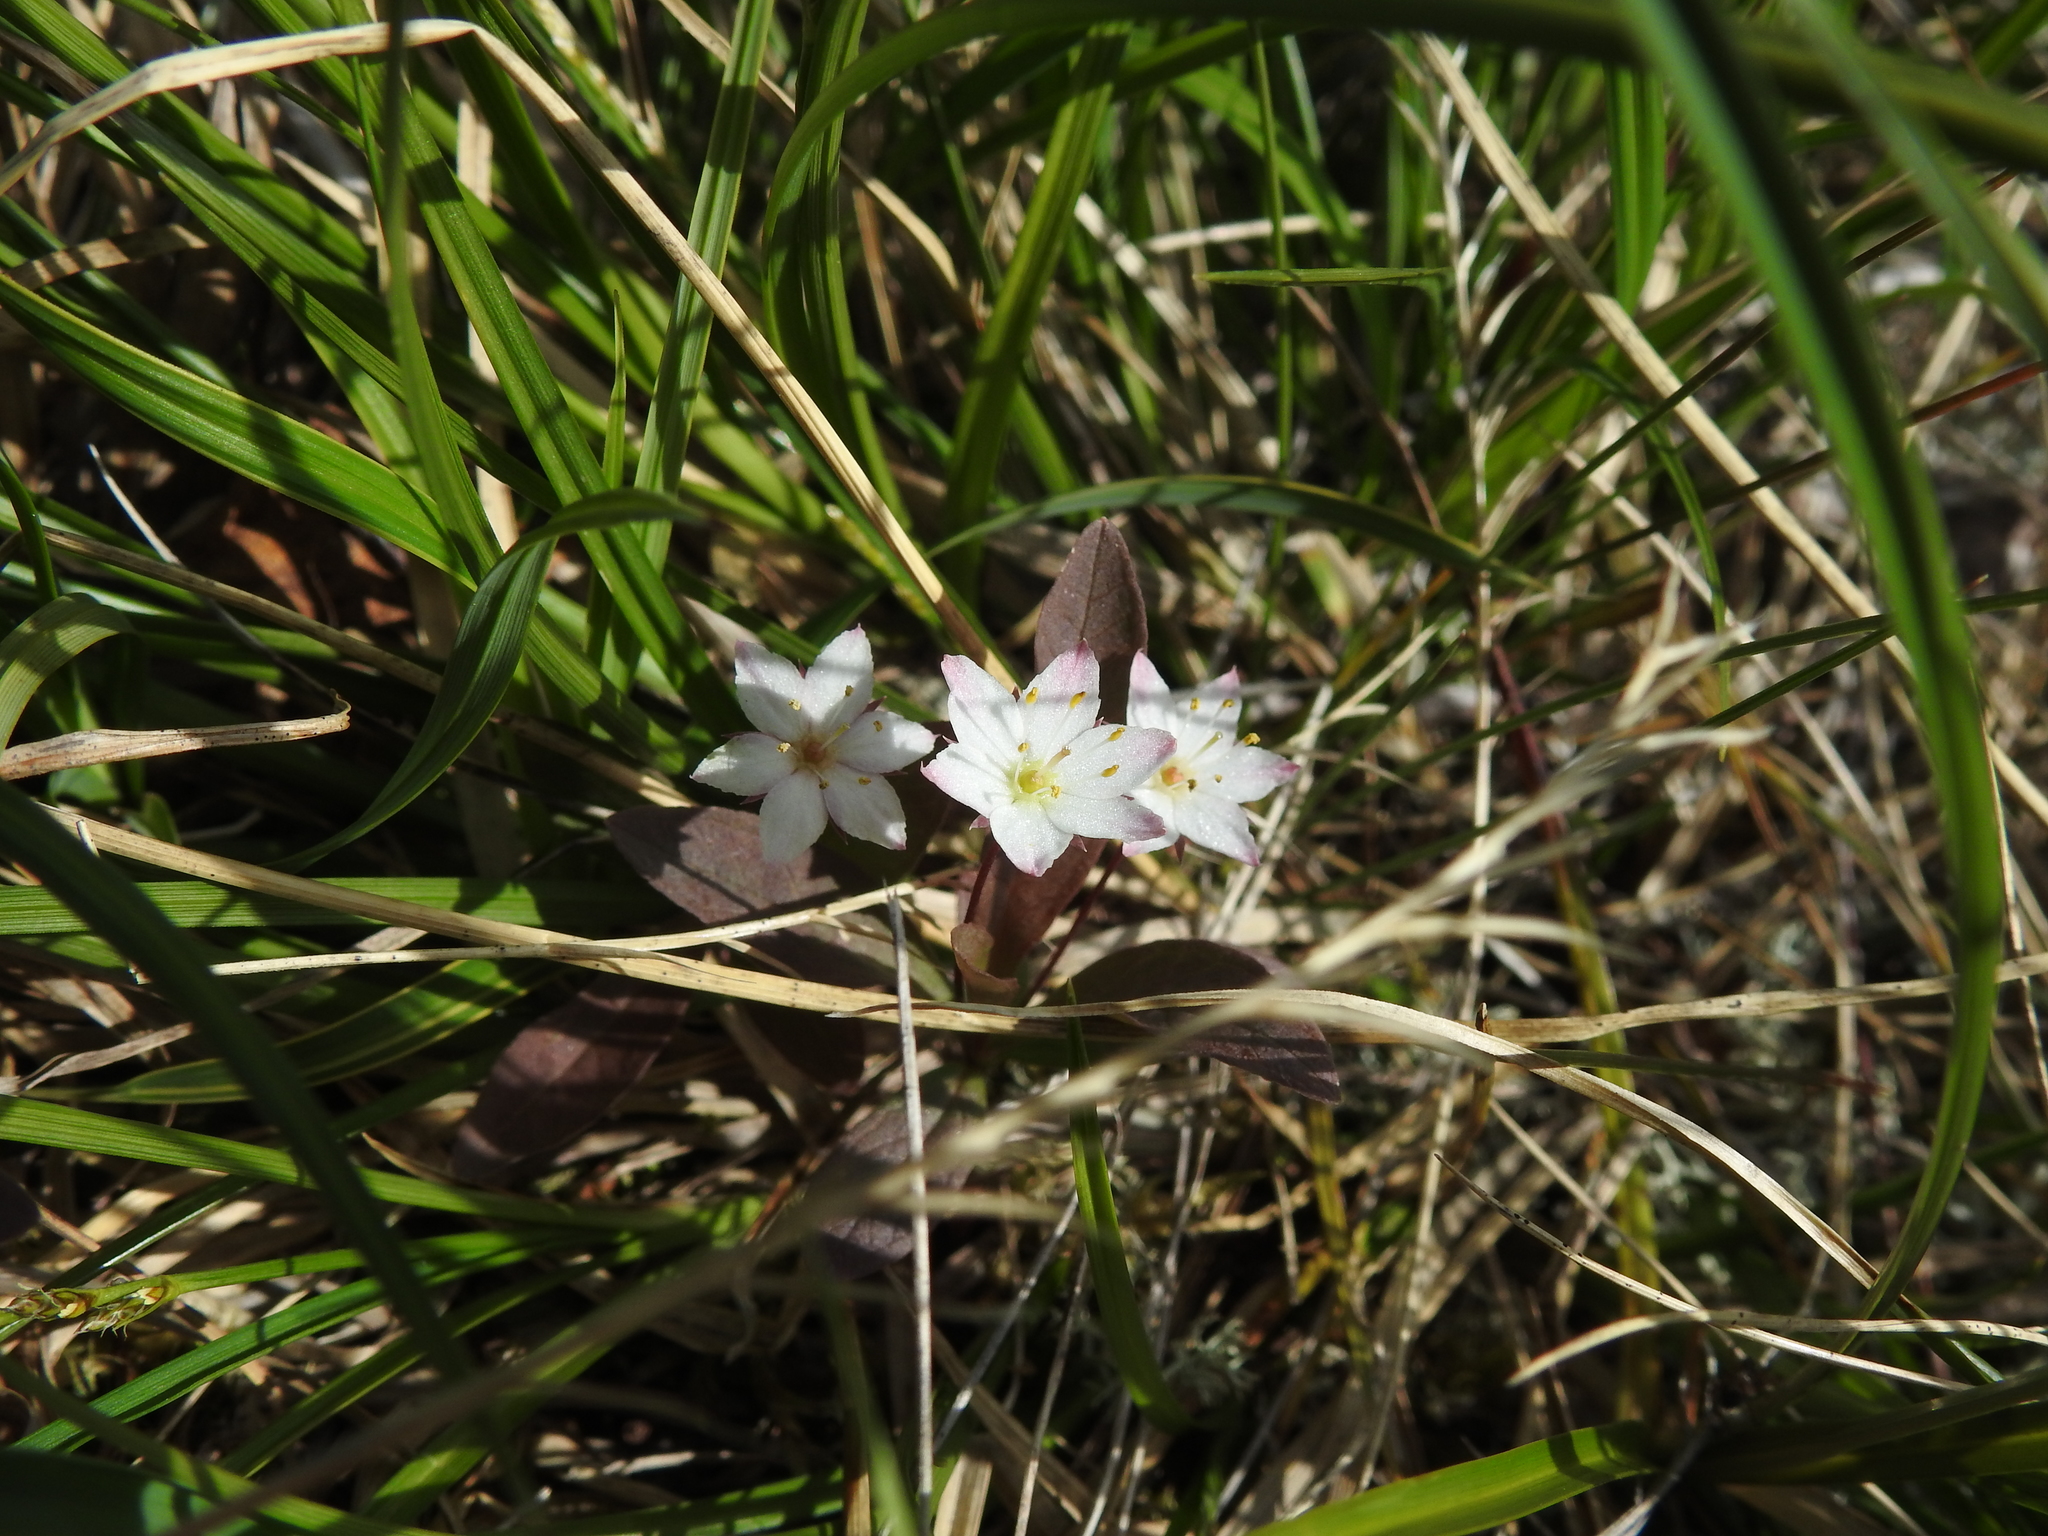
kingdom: Plantae
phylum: Tracheophyta
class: Magnoliopsida
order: Ericales
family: Primulaceae
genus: Lysimachia
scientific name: Lysimachia europaea
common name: Arctic starflower
